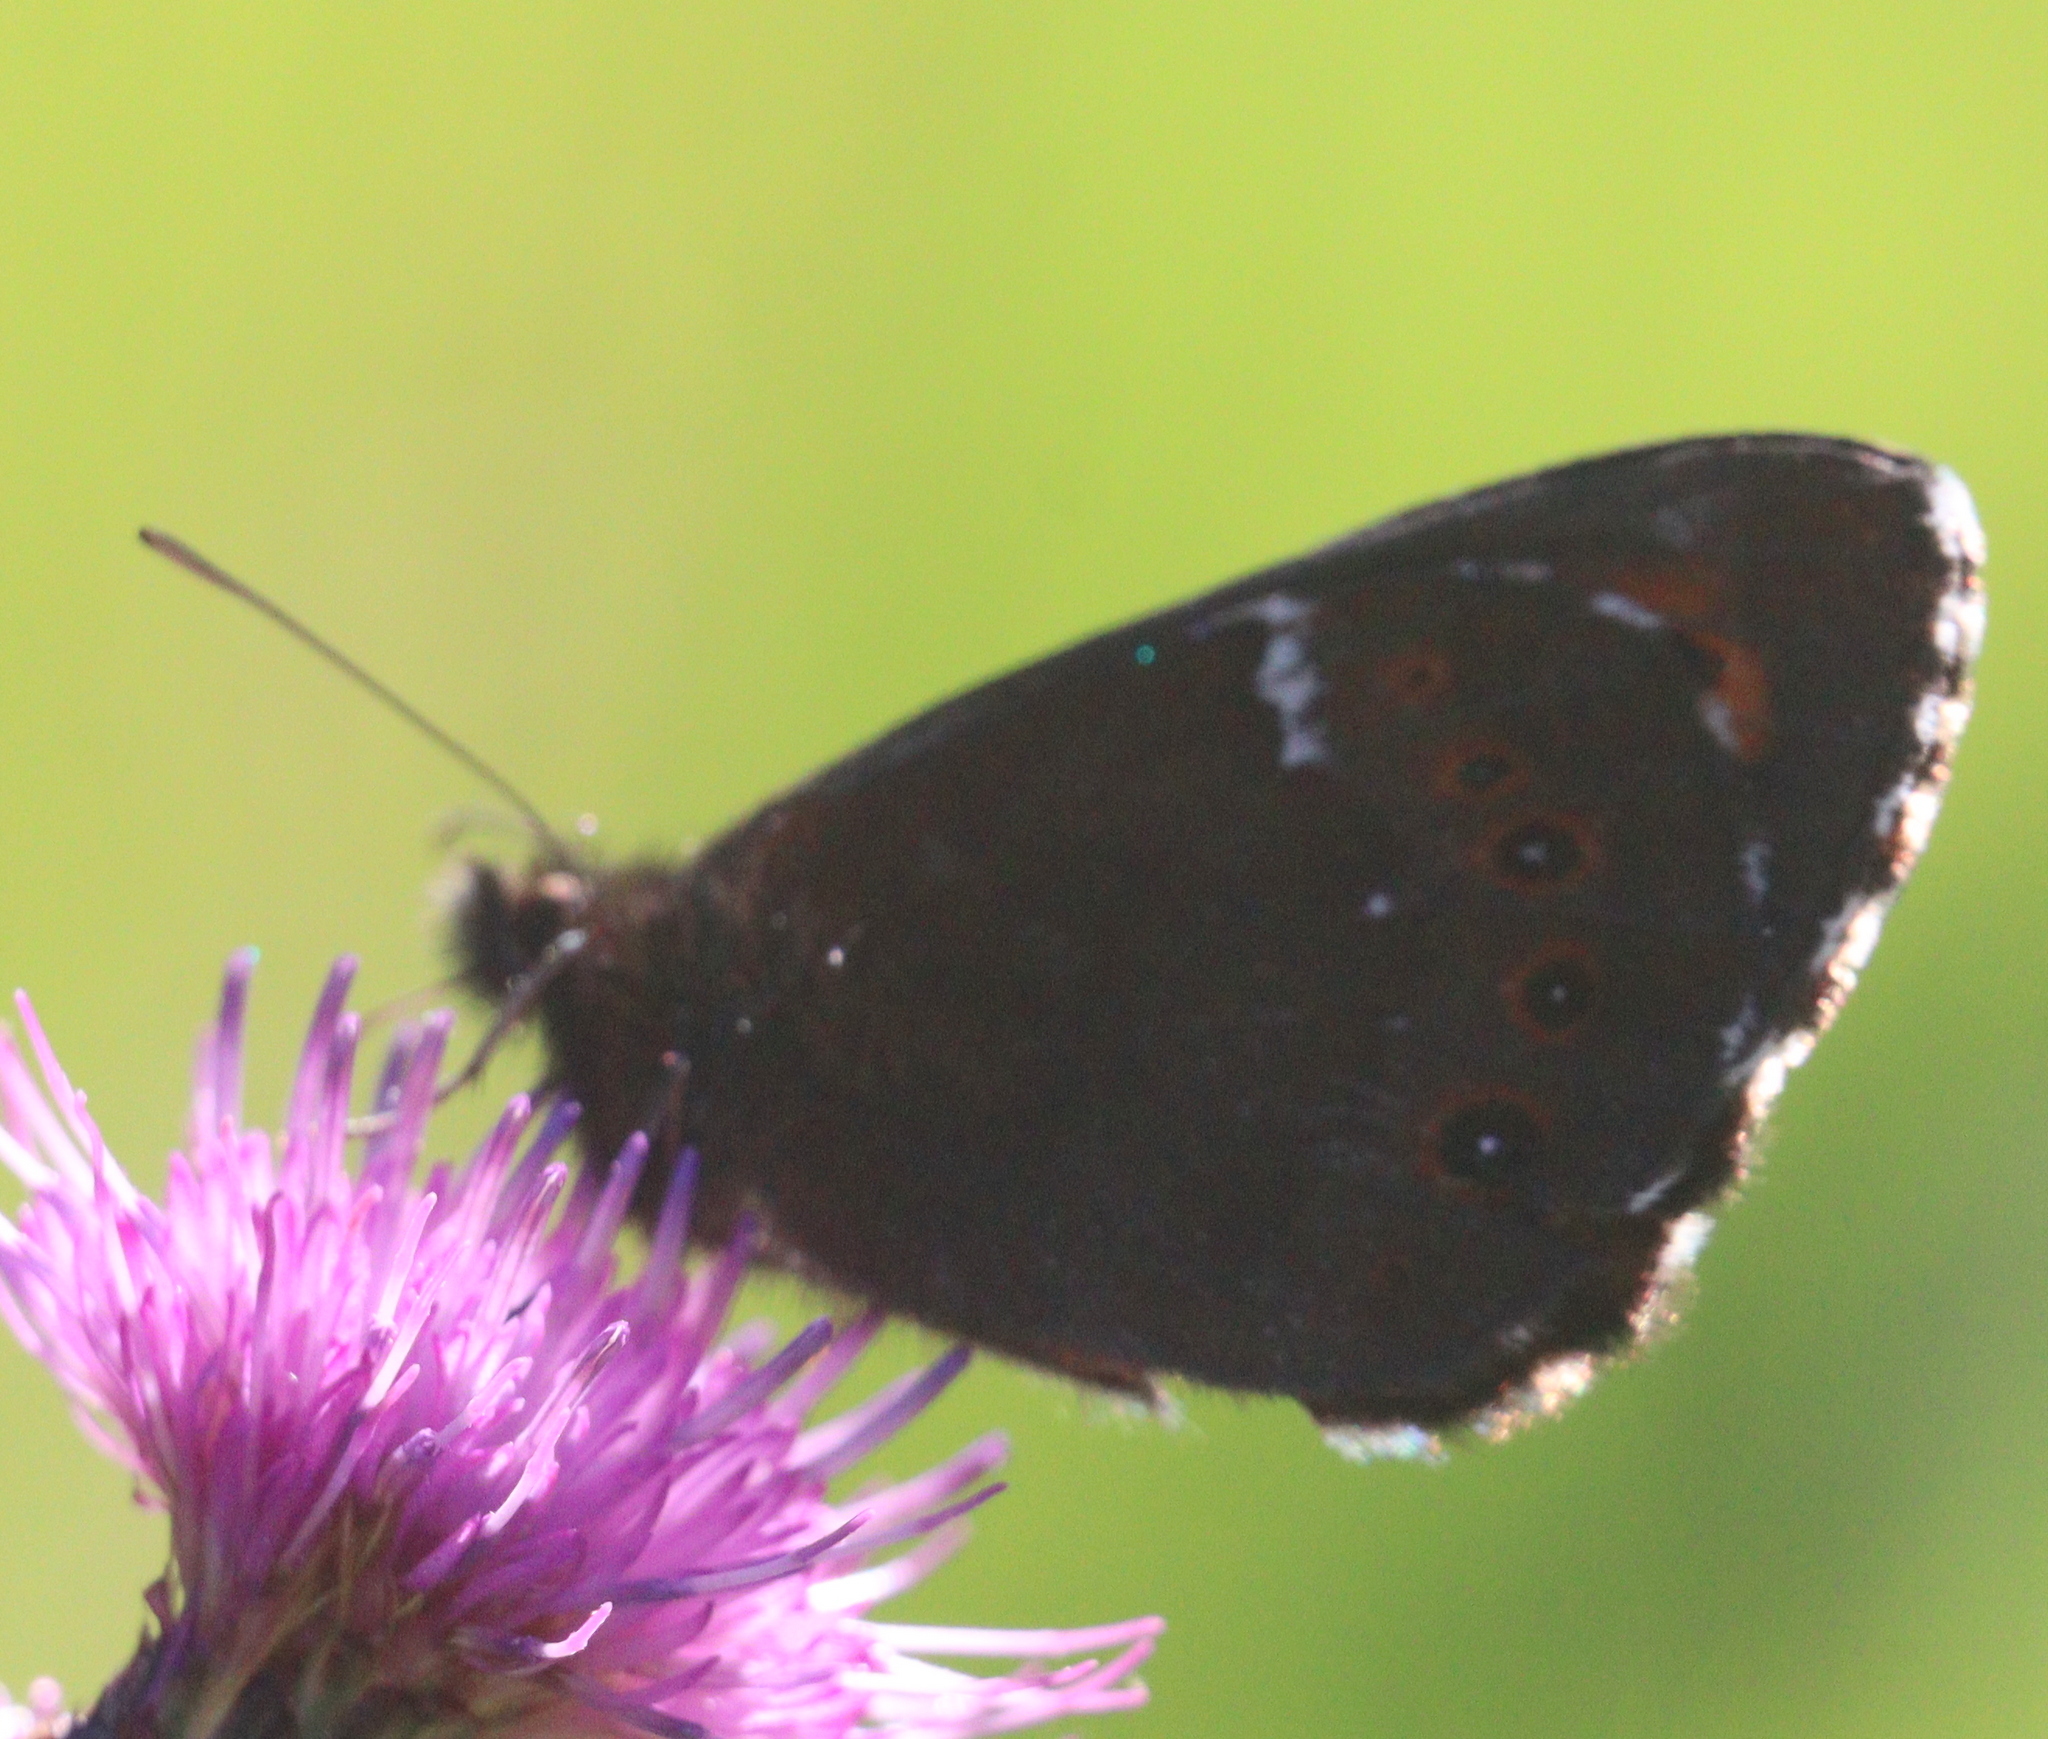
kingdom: Animalia
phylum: Arthropoda
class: Insecta
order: Lepidoptera
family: Nymphalidae
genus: Erebia
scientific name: Erebia ligea
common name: Arran brown
